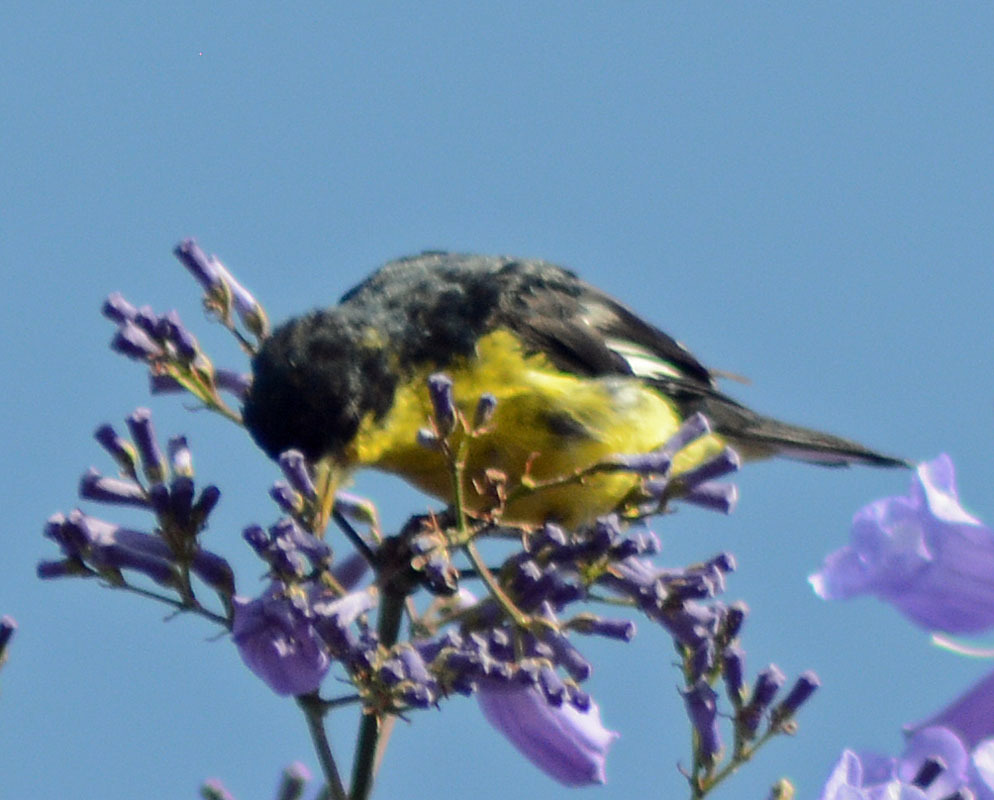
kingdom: Animalia
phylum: Chordata
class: Aves
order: Passeriformes
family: Fringillidae
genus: Spinus
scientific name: Spinus psaltria
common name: Lesser goldfinch
